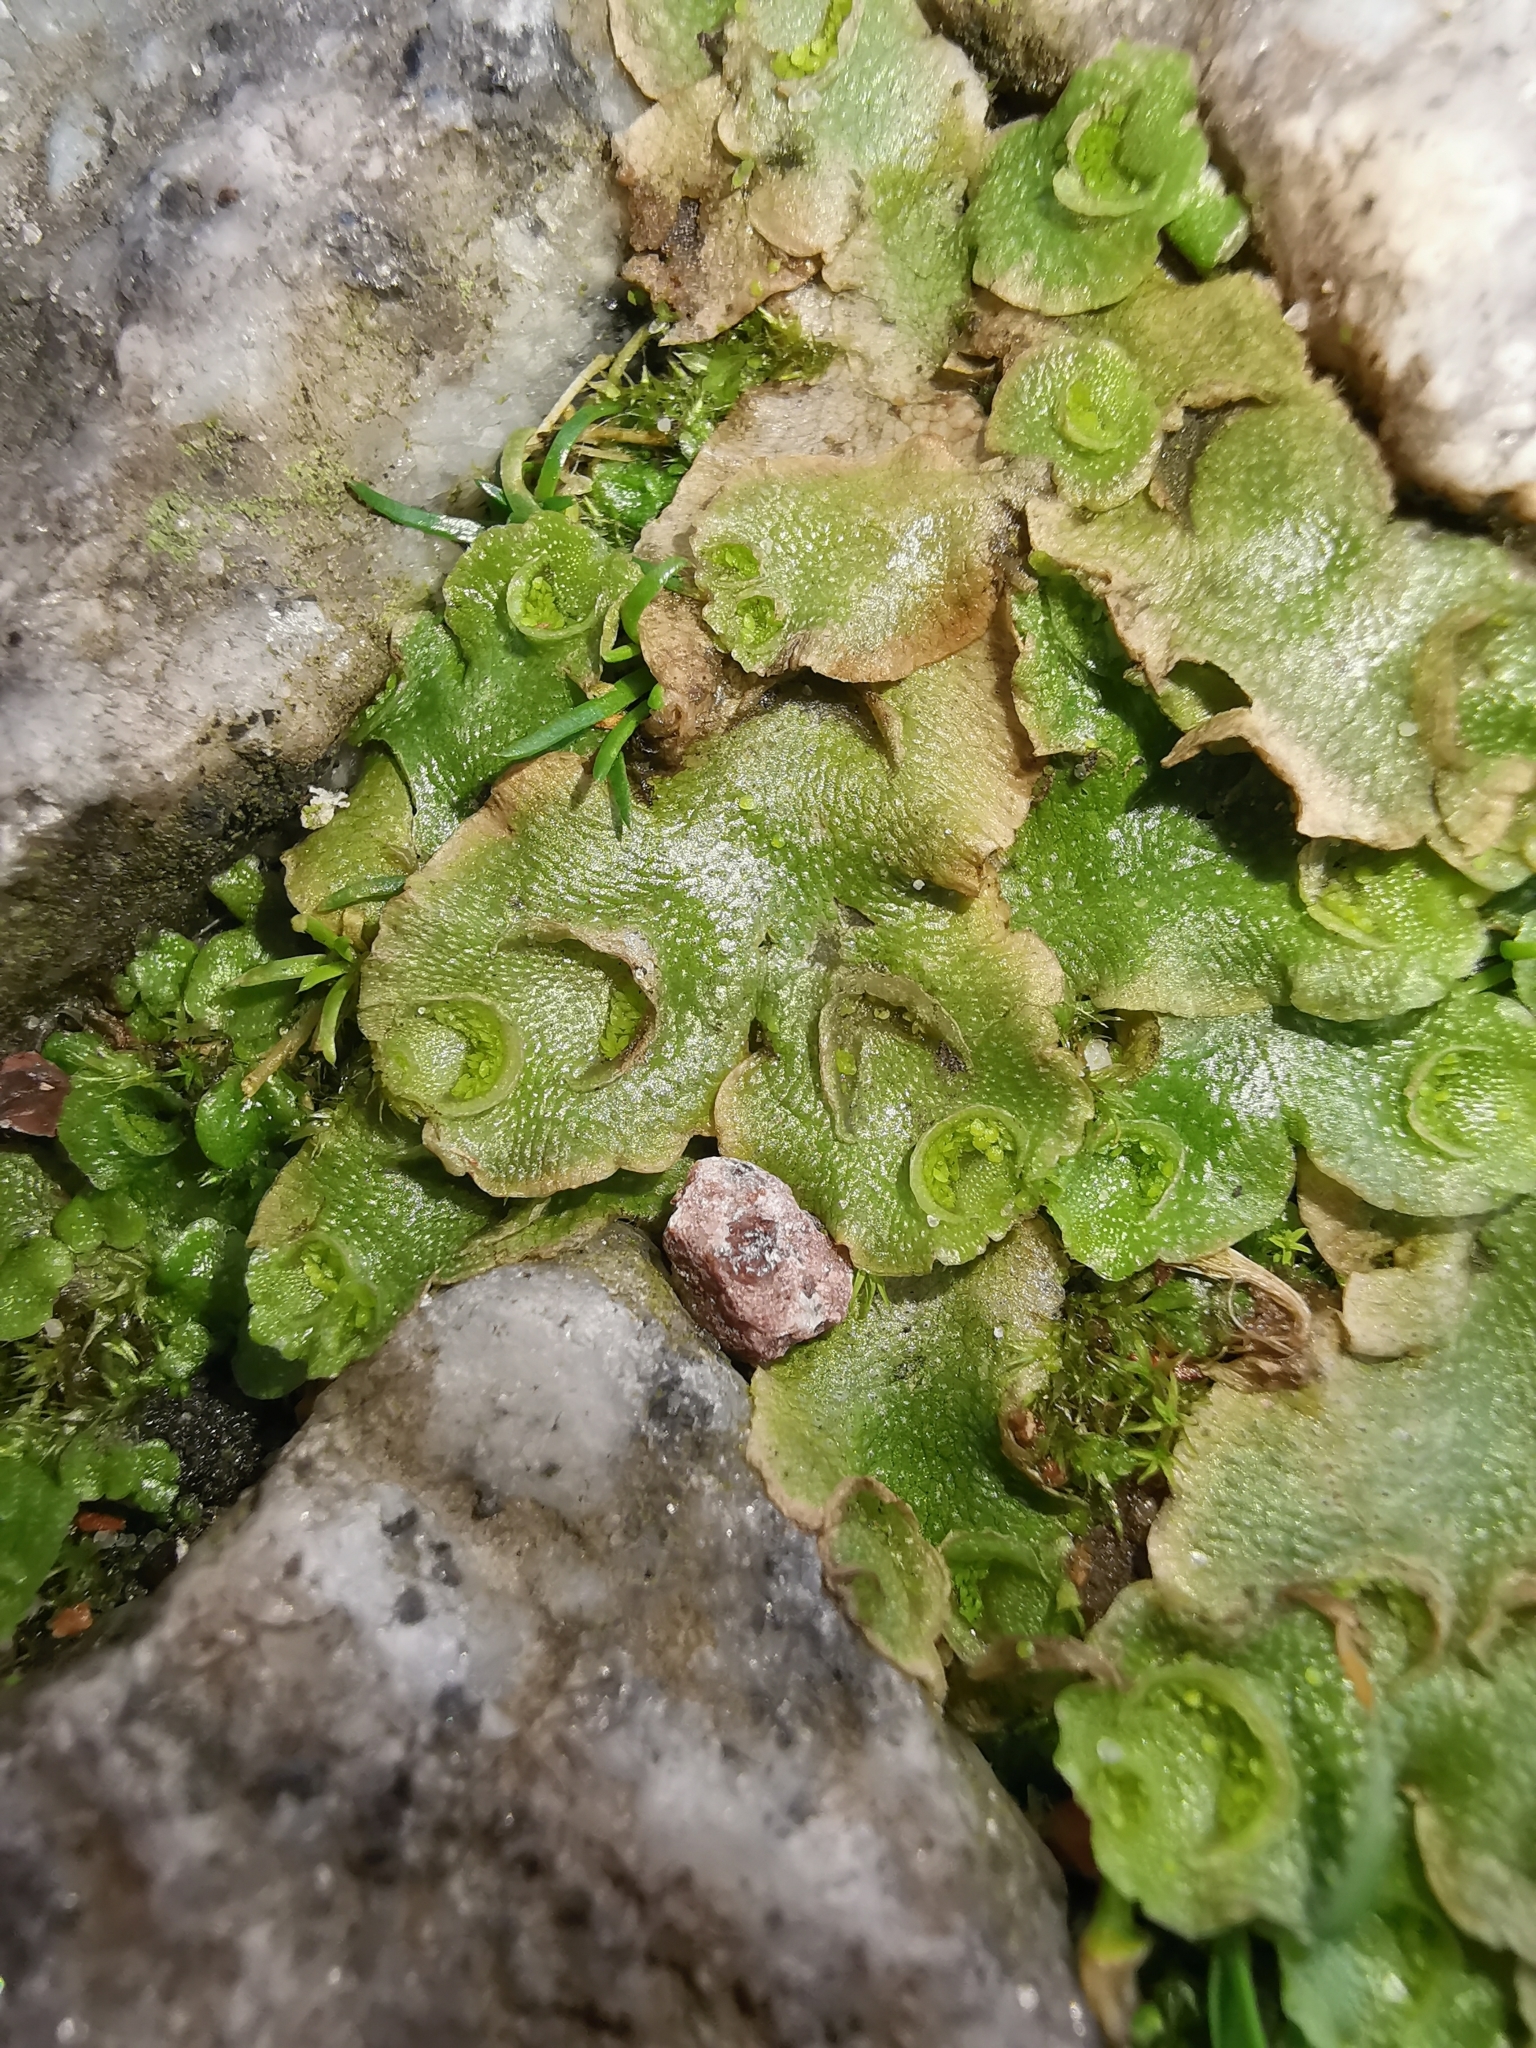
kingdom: Plantae
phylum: Marchantiophyta
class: Marchantiopsida
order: Lunulariales
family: Lunulariaceae
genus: Lunularia
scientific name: Lunularia cruciata
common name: Crescent-cup liverwort
